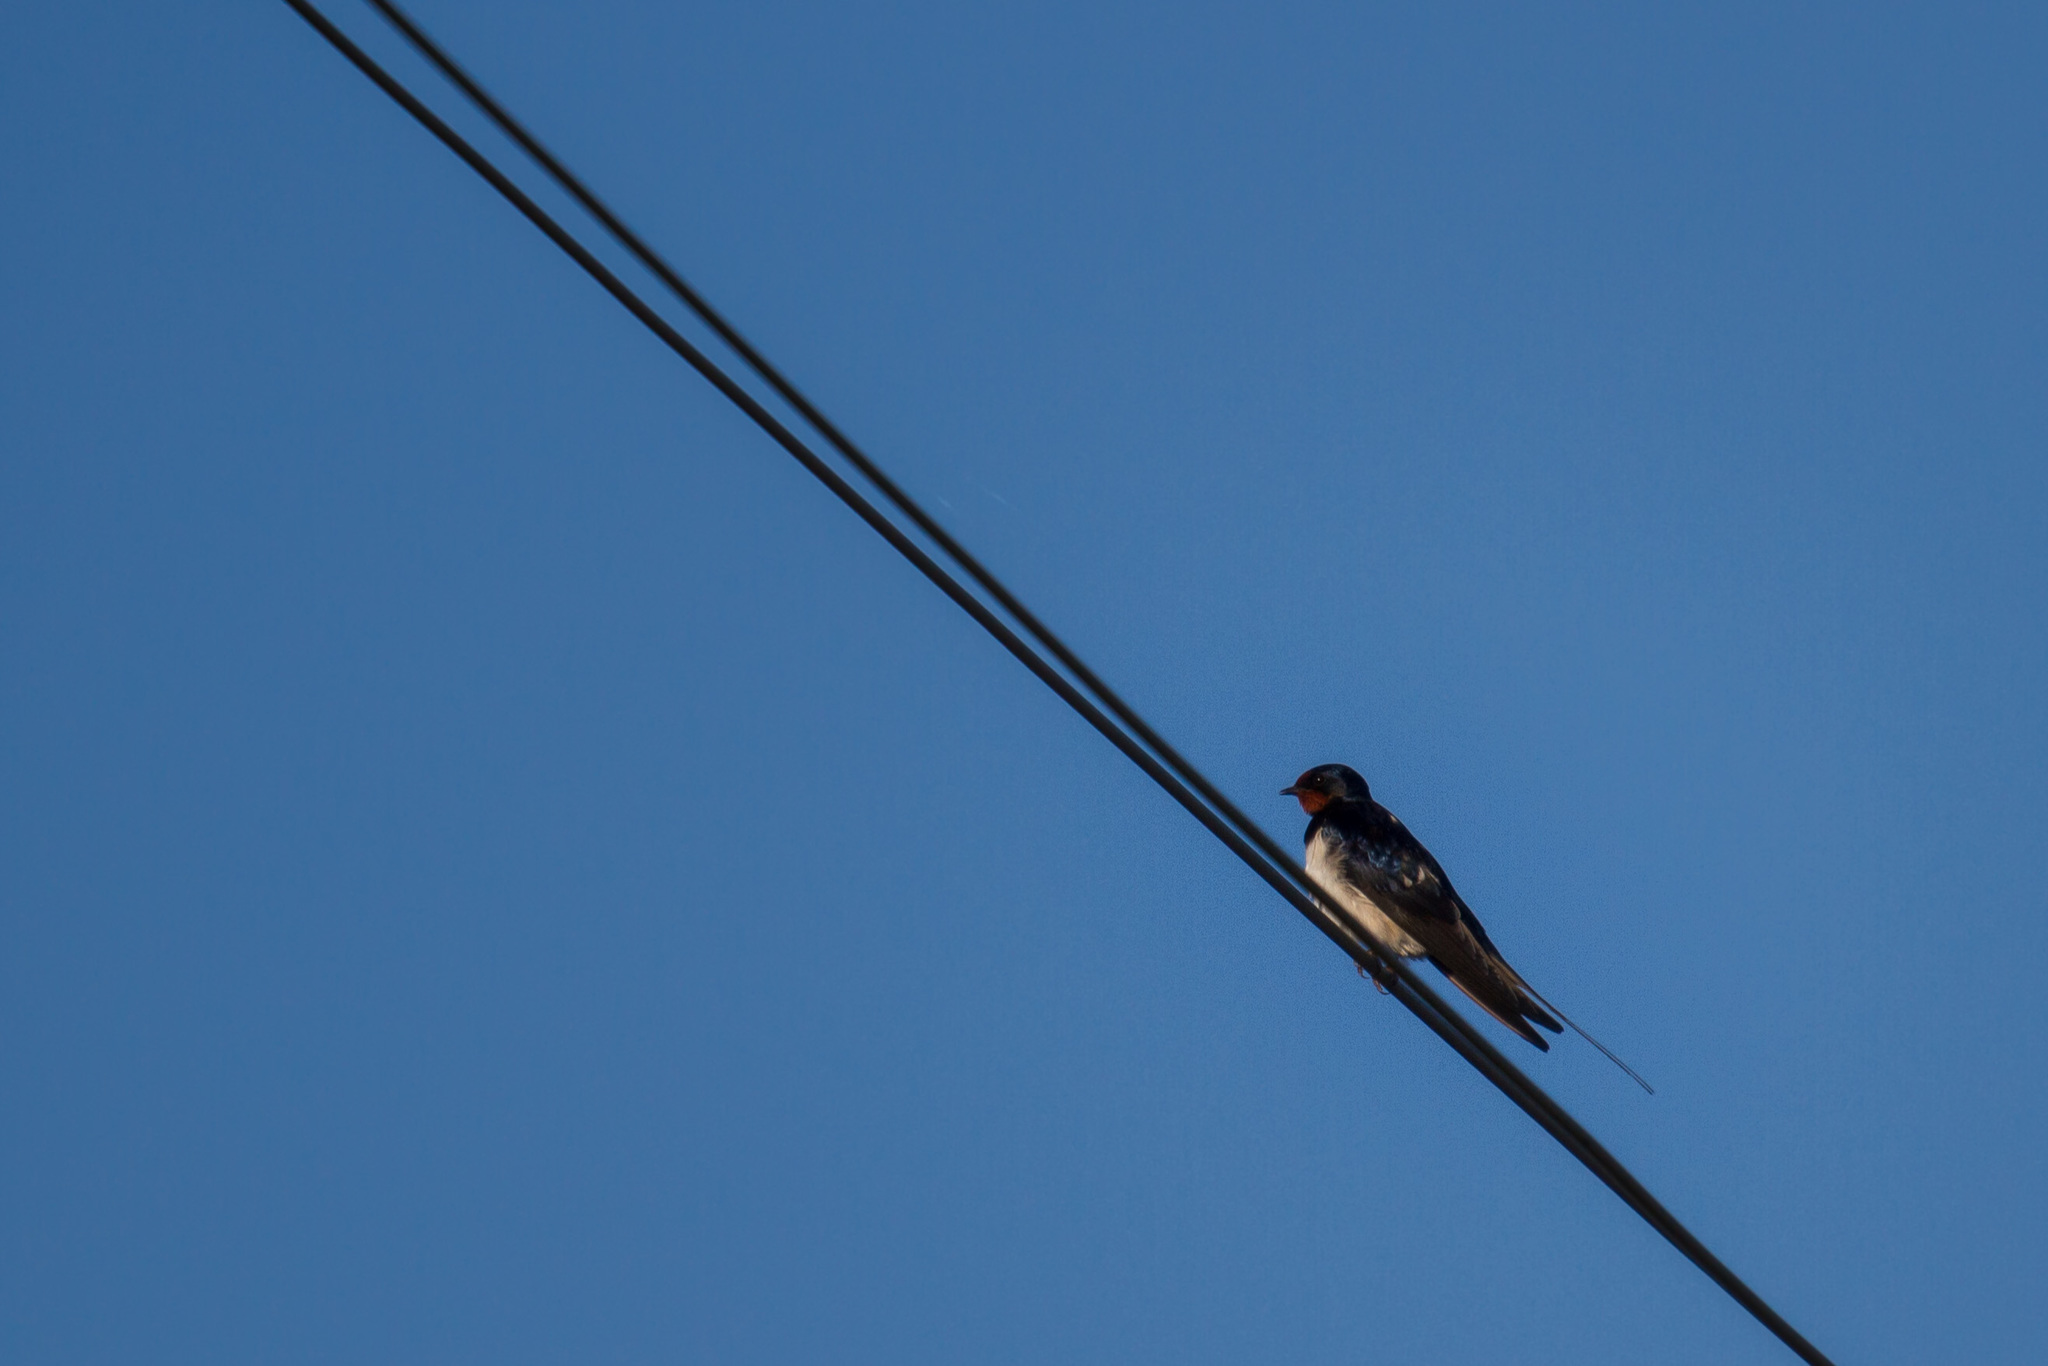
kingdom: Animalia
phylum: Chordata
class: Aves
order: Passeriformes
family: Hirundinidae
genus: Hirundo
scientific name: Hirundo rustica
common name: Barn swallow
